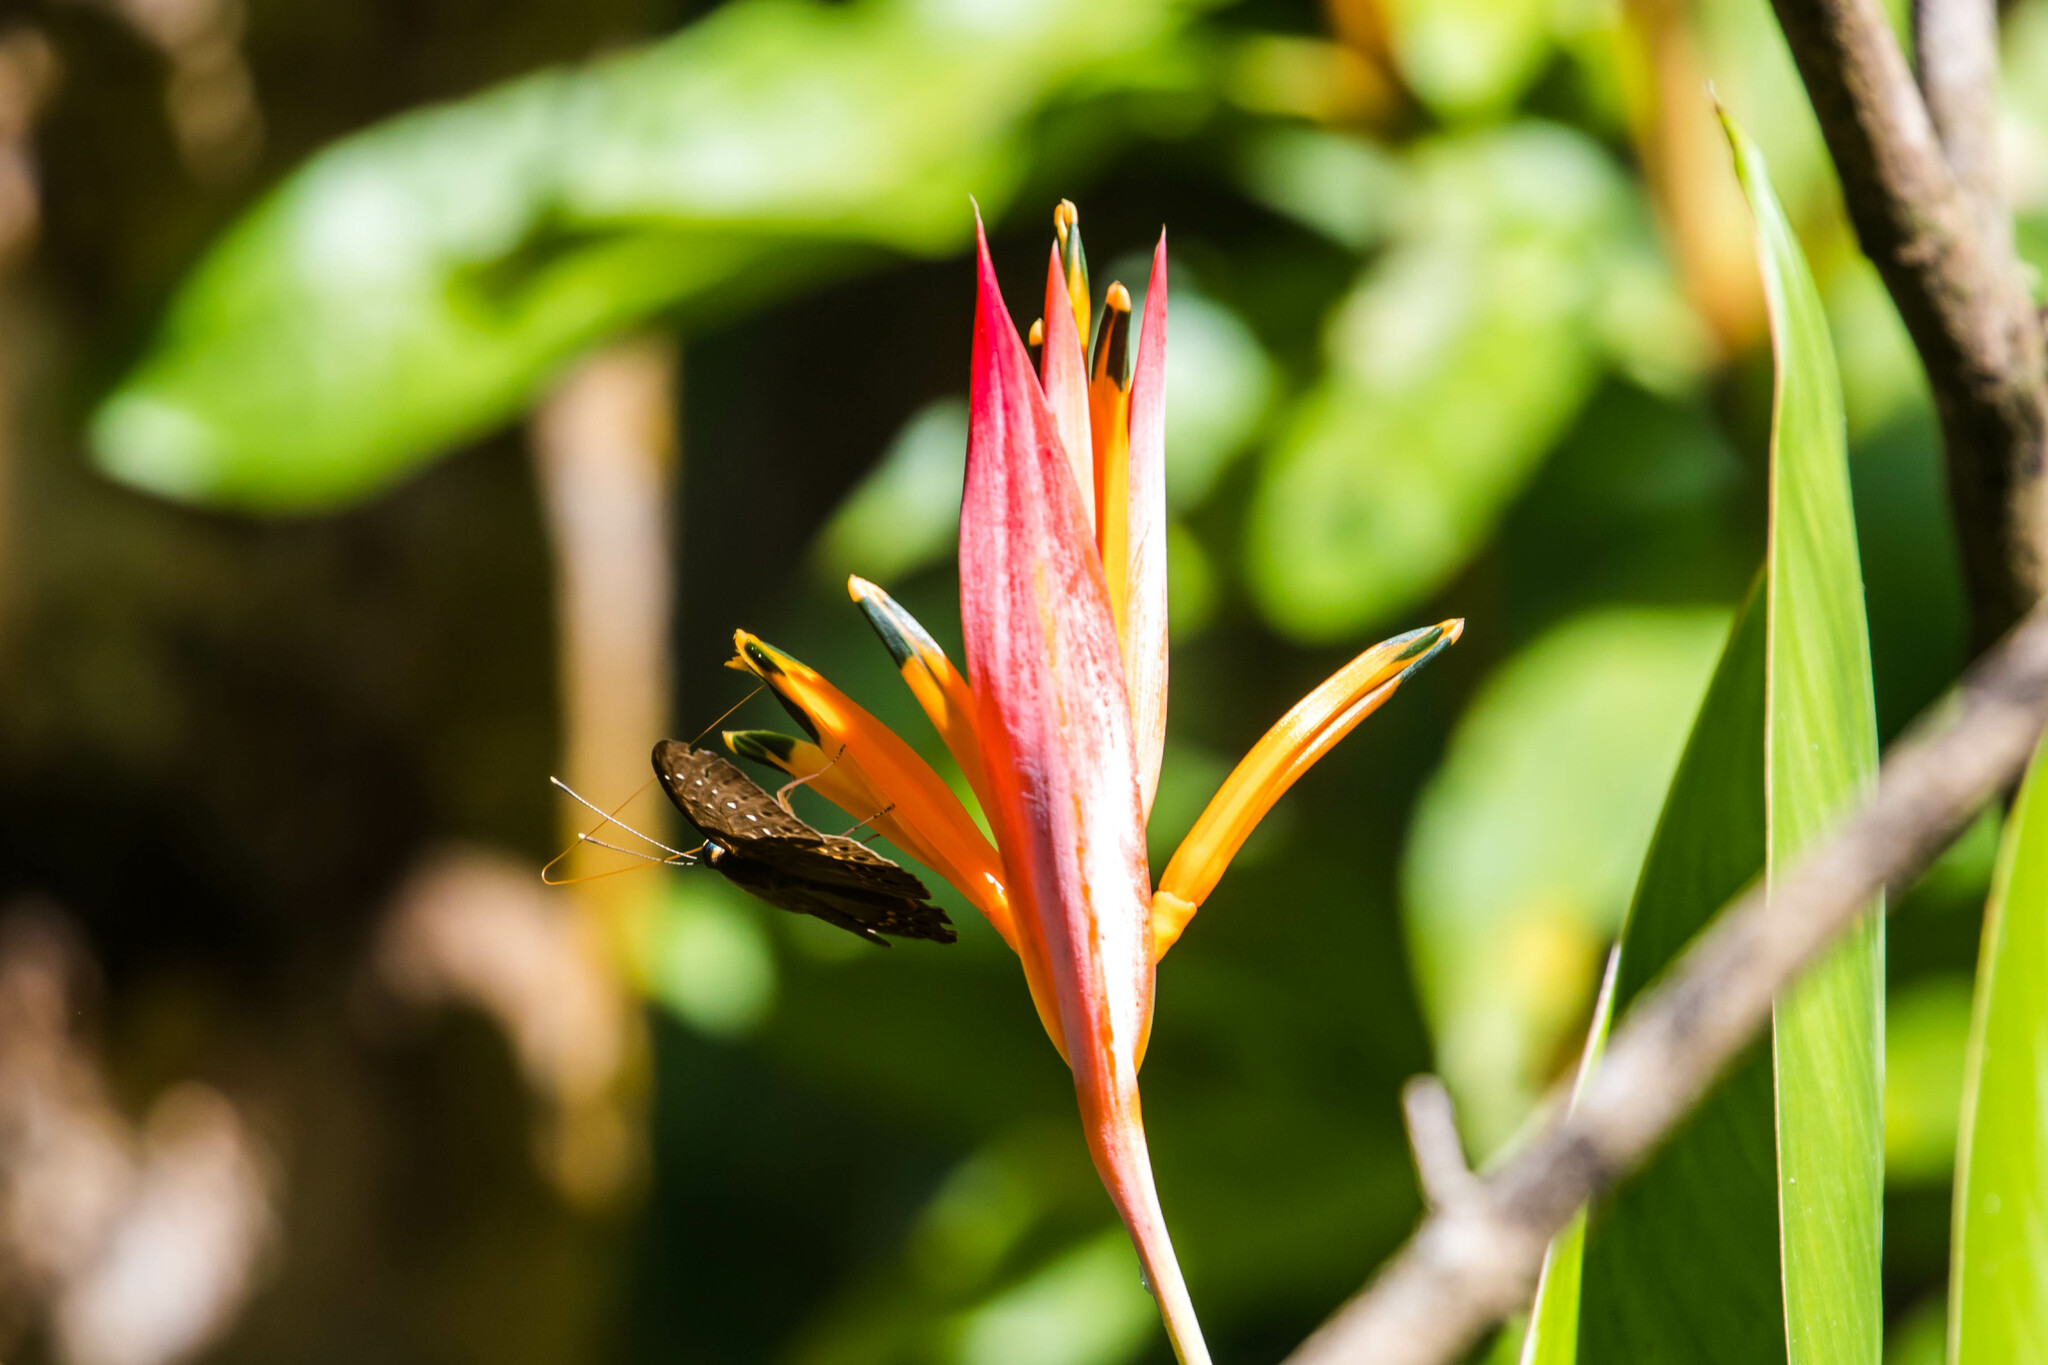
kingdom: Animalia
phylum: Cnidaria
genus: Eurybia
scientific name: Eurybia elvina
